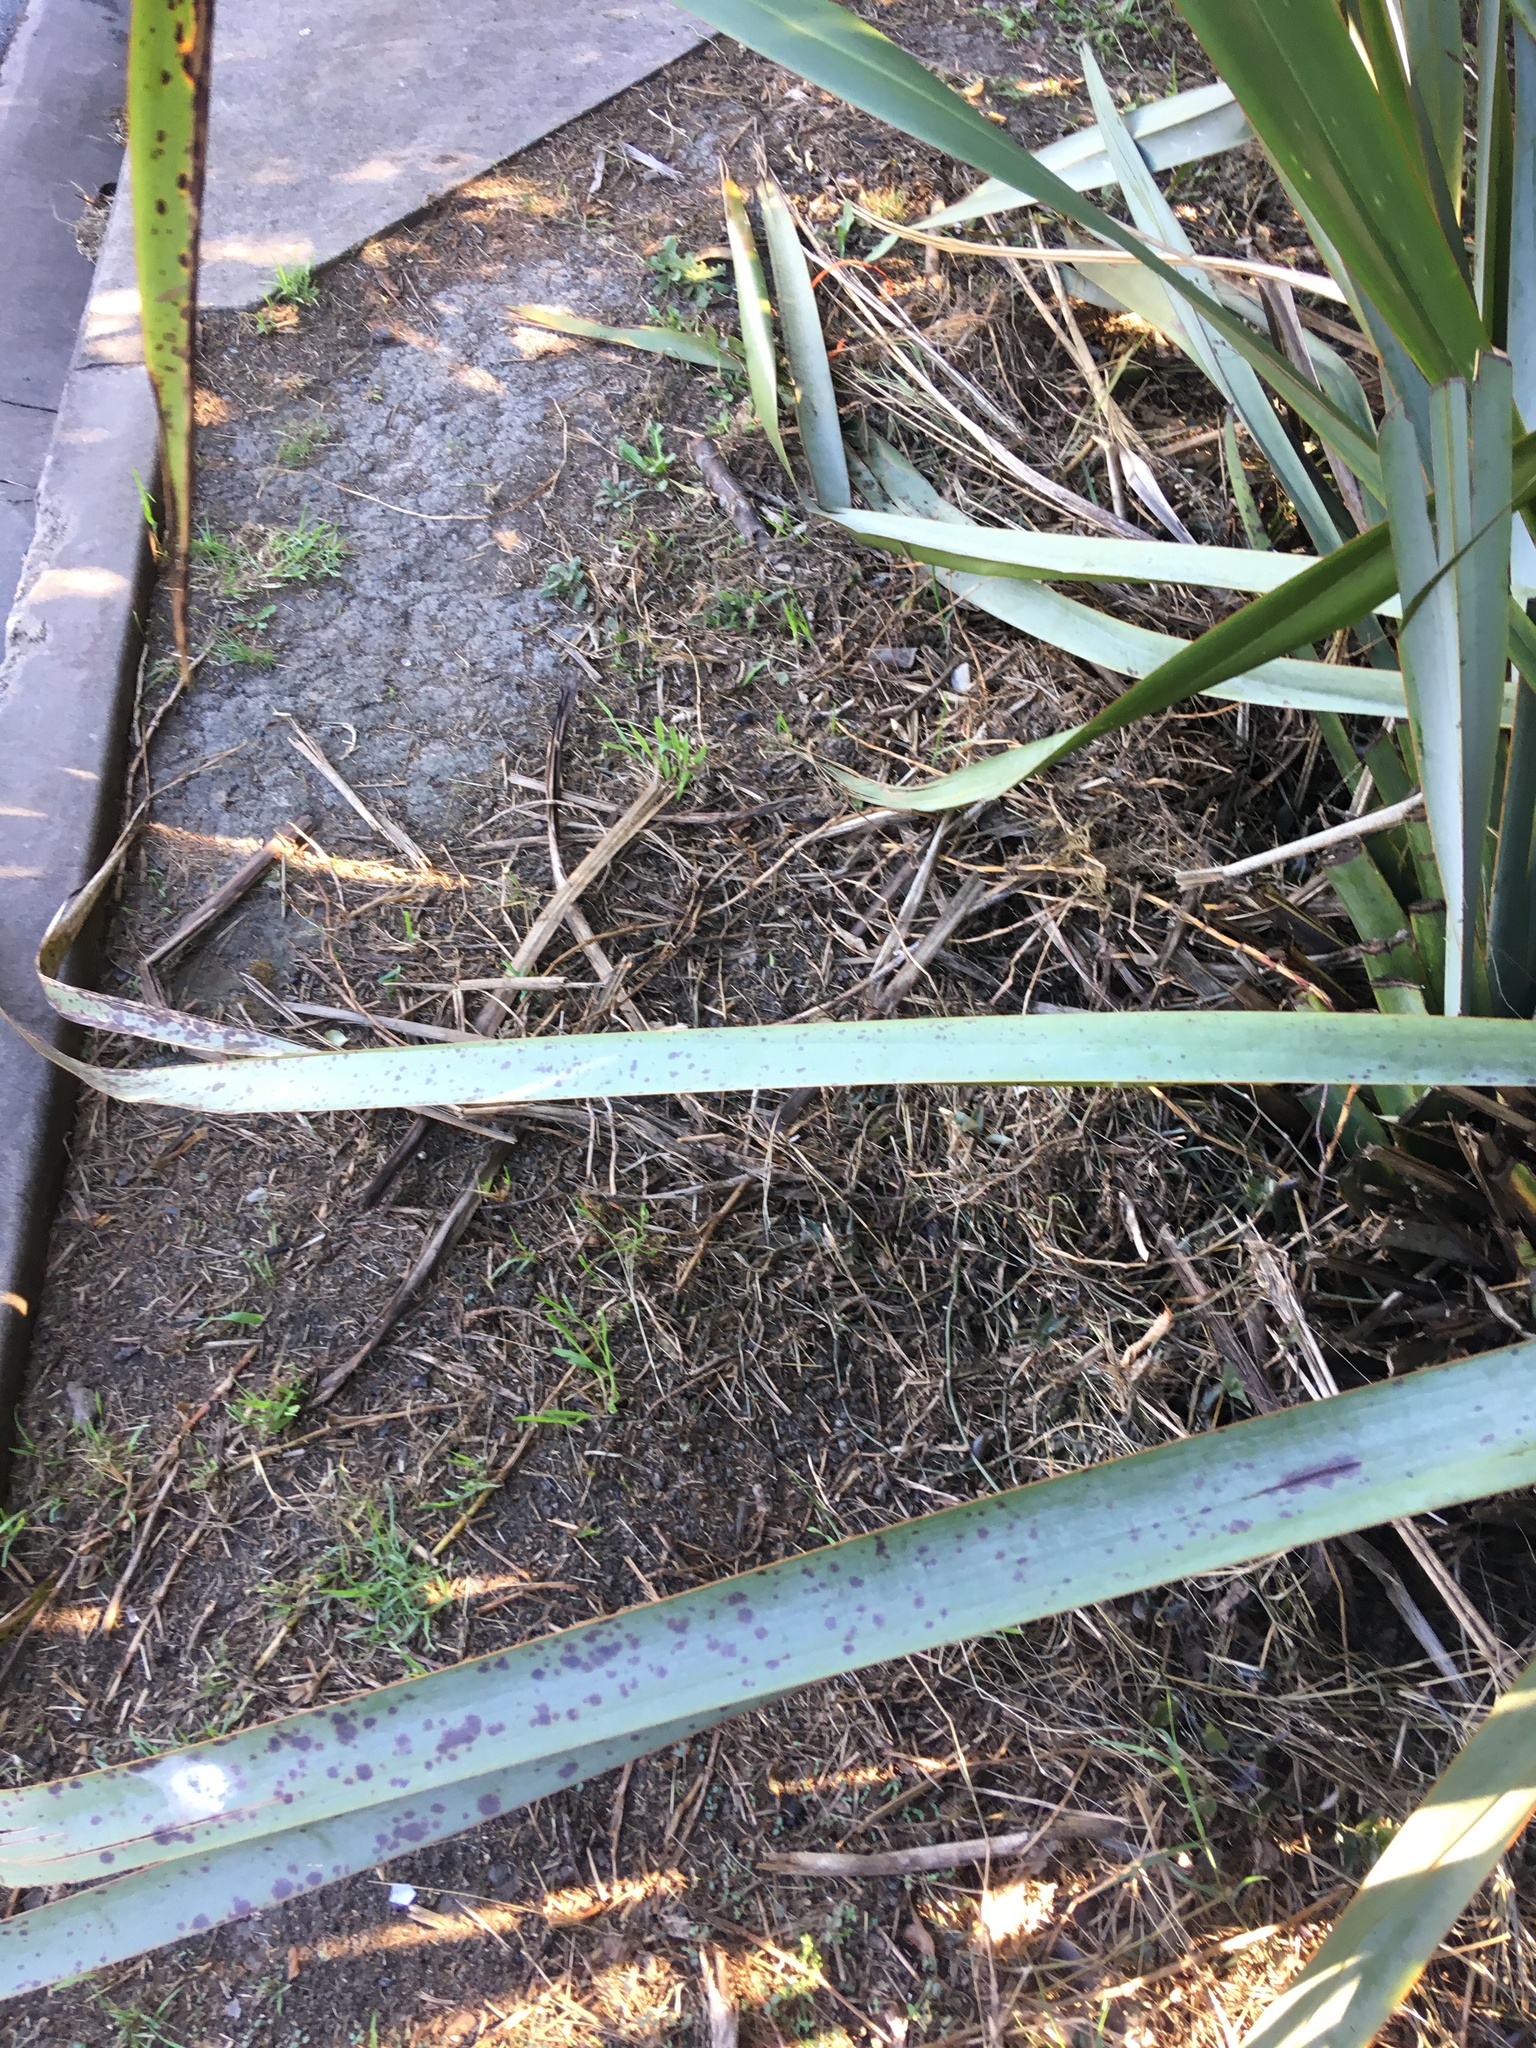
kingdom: Plantae
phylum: Tracheophyta
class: Liliopsida
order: Asparagales
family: Asphodelaceae
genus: Phormium
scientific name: Phormium tenax
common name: New zealand flax
